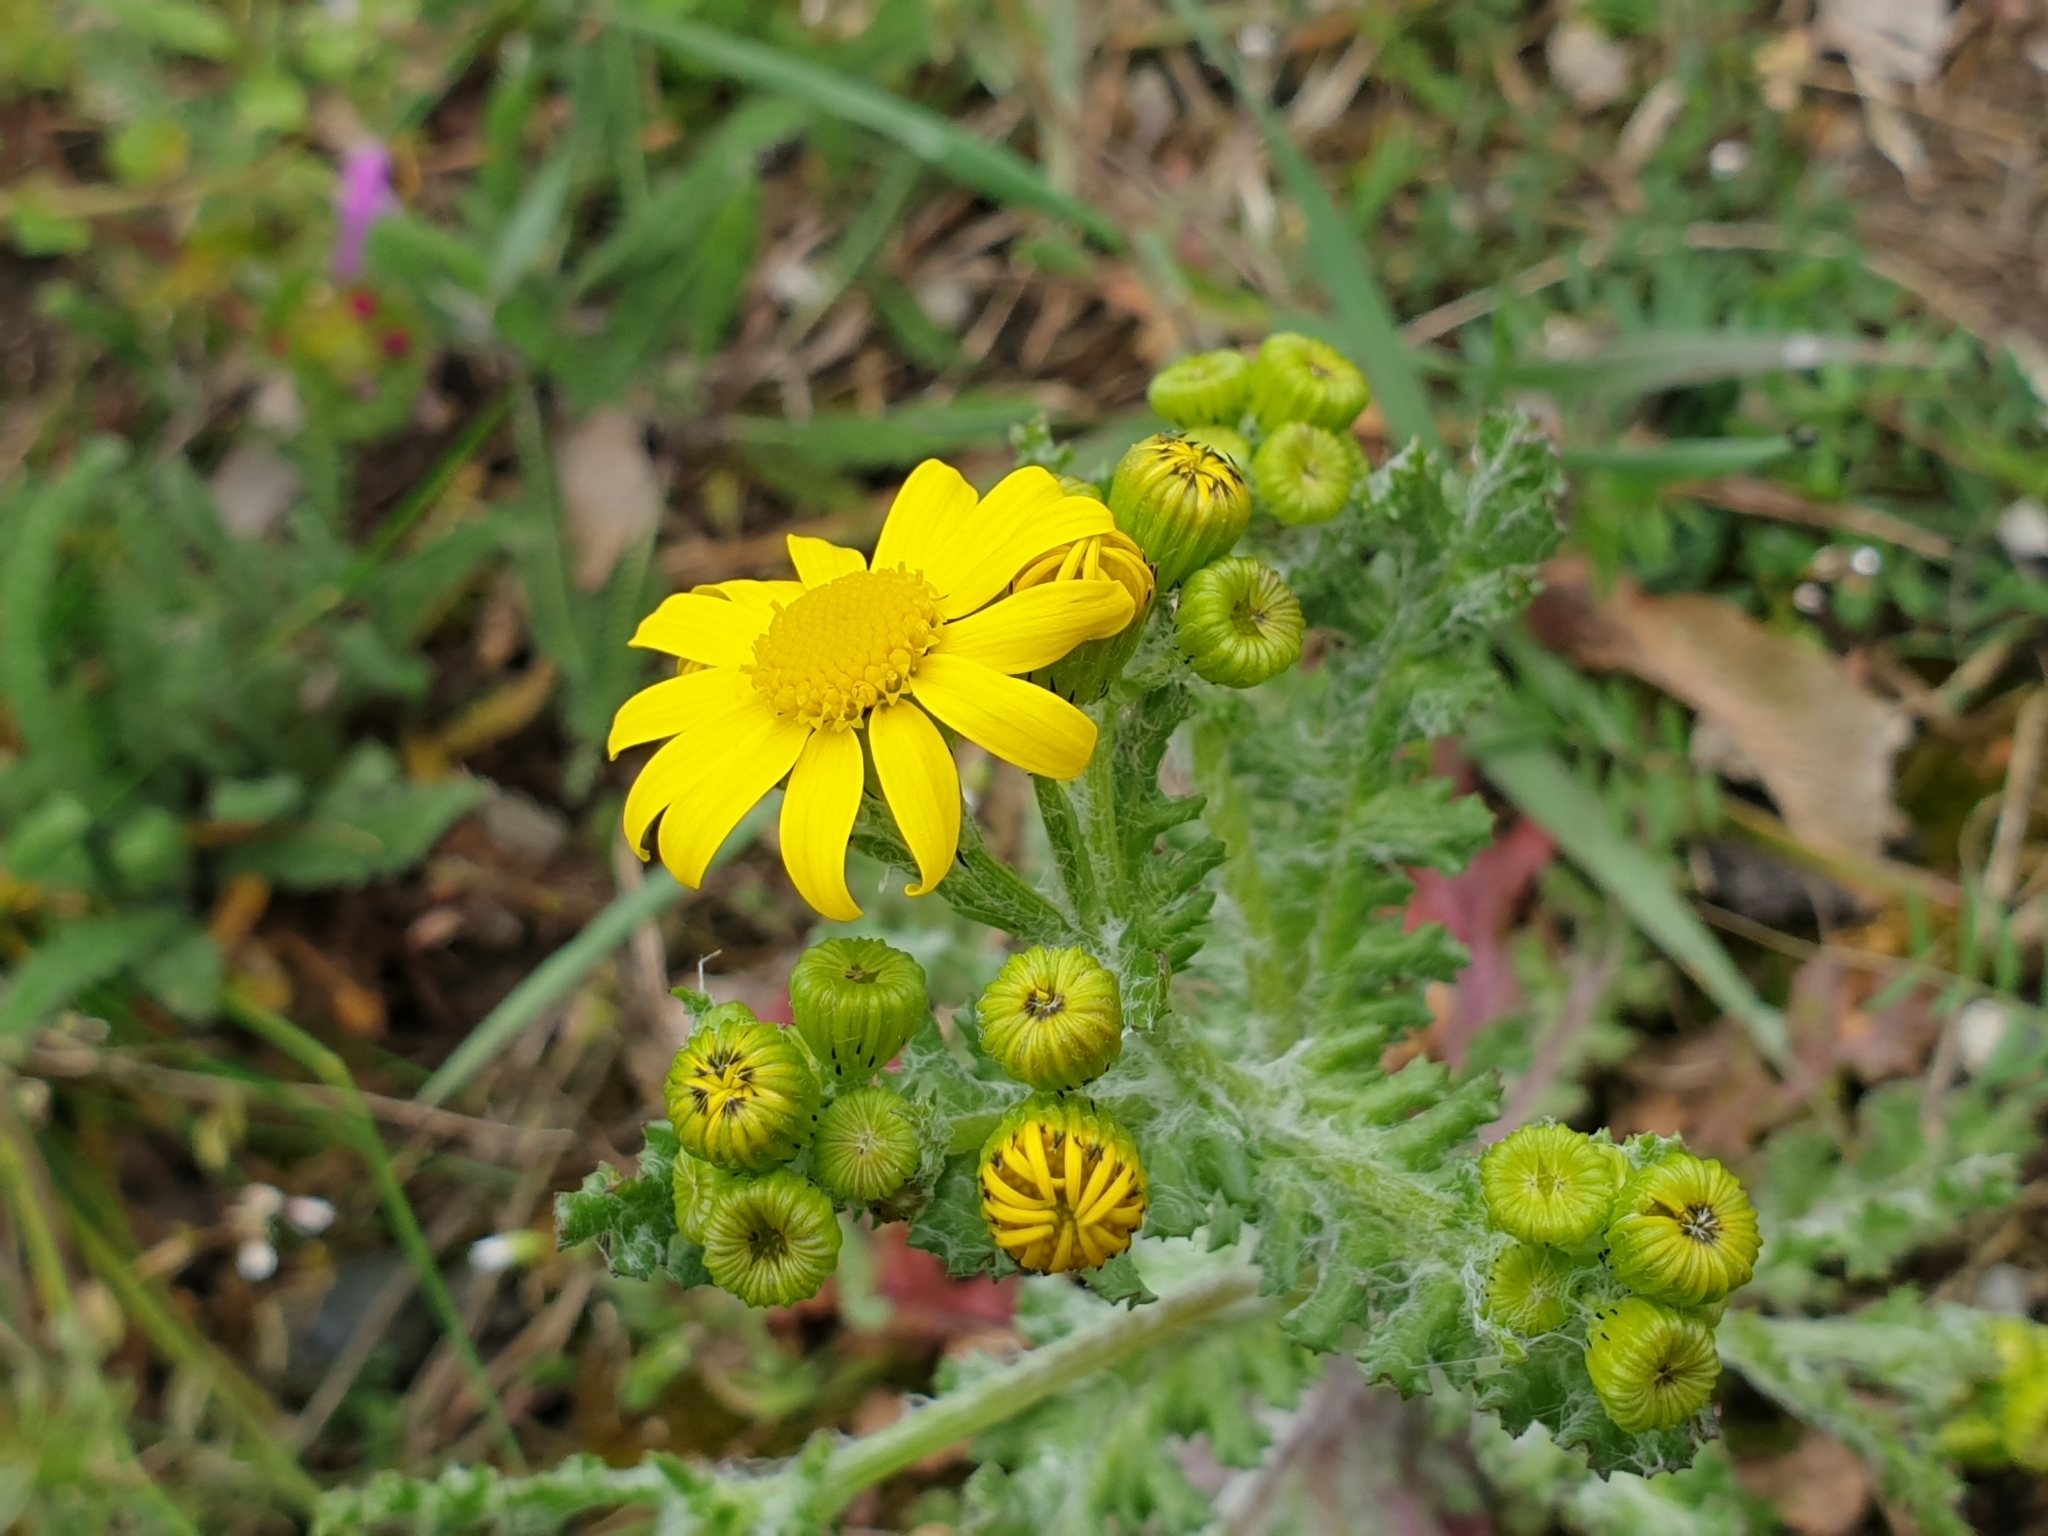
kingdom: Plantae
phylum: Tracheophyta
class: Magnoliopsida
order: Asterales
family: Asteraceae
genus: Senecio
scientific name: Senecio vernalis
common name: Eastern groundsel
